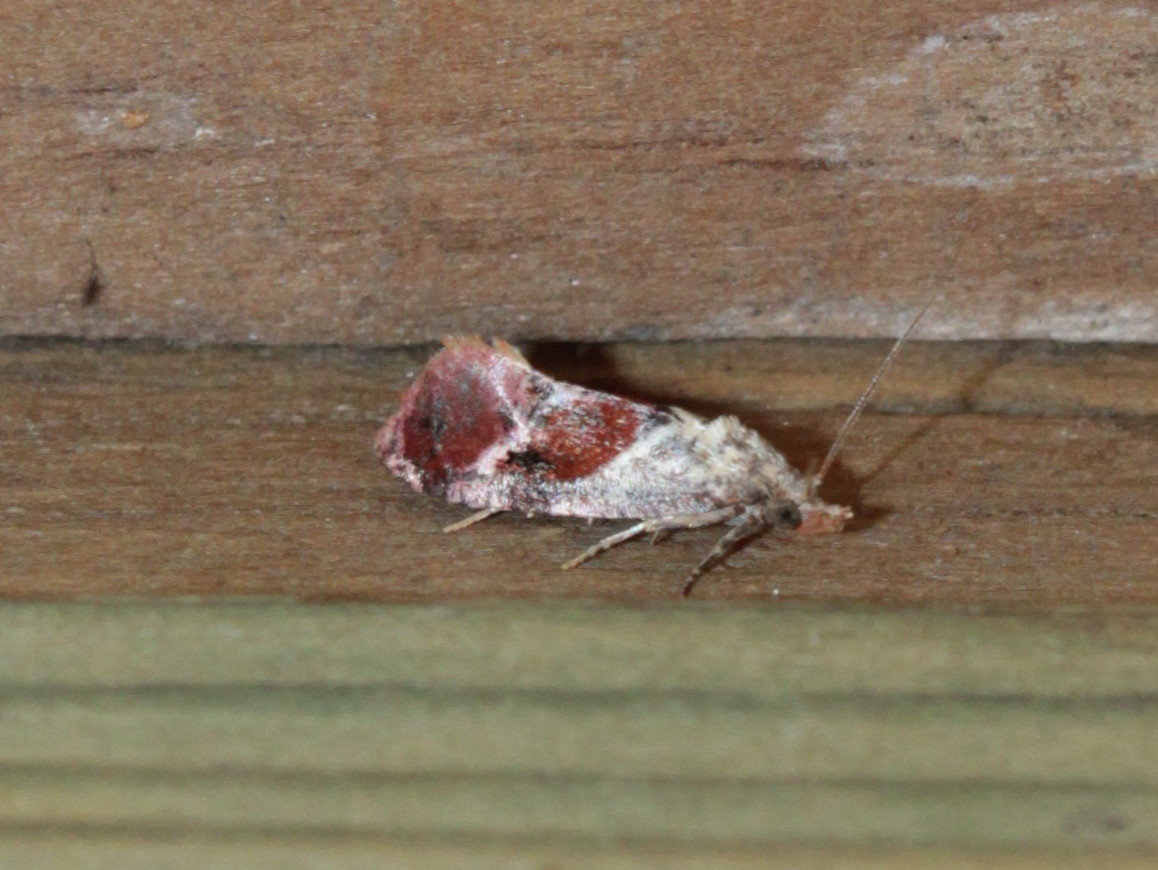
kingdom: Animalia
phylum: Arthropoda
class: Insecta
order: Lepidoptera
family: Tortricidae
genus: Cochylis
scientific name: Cochylis Cochylichroa viscana
